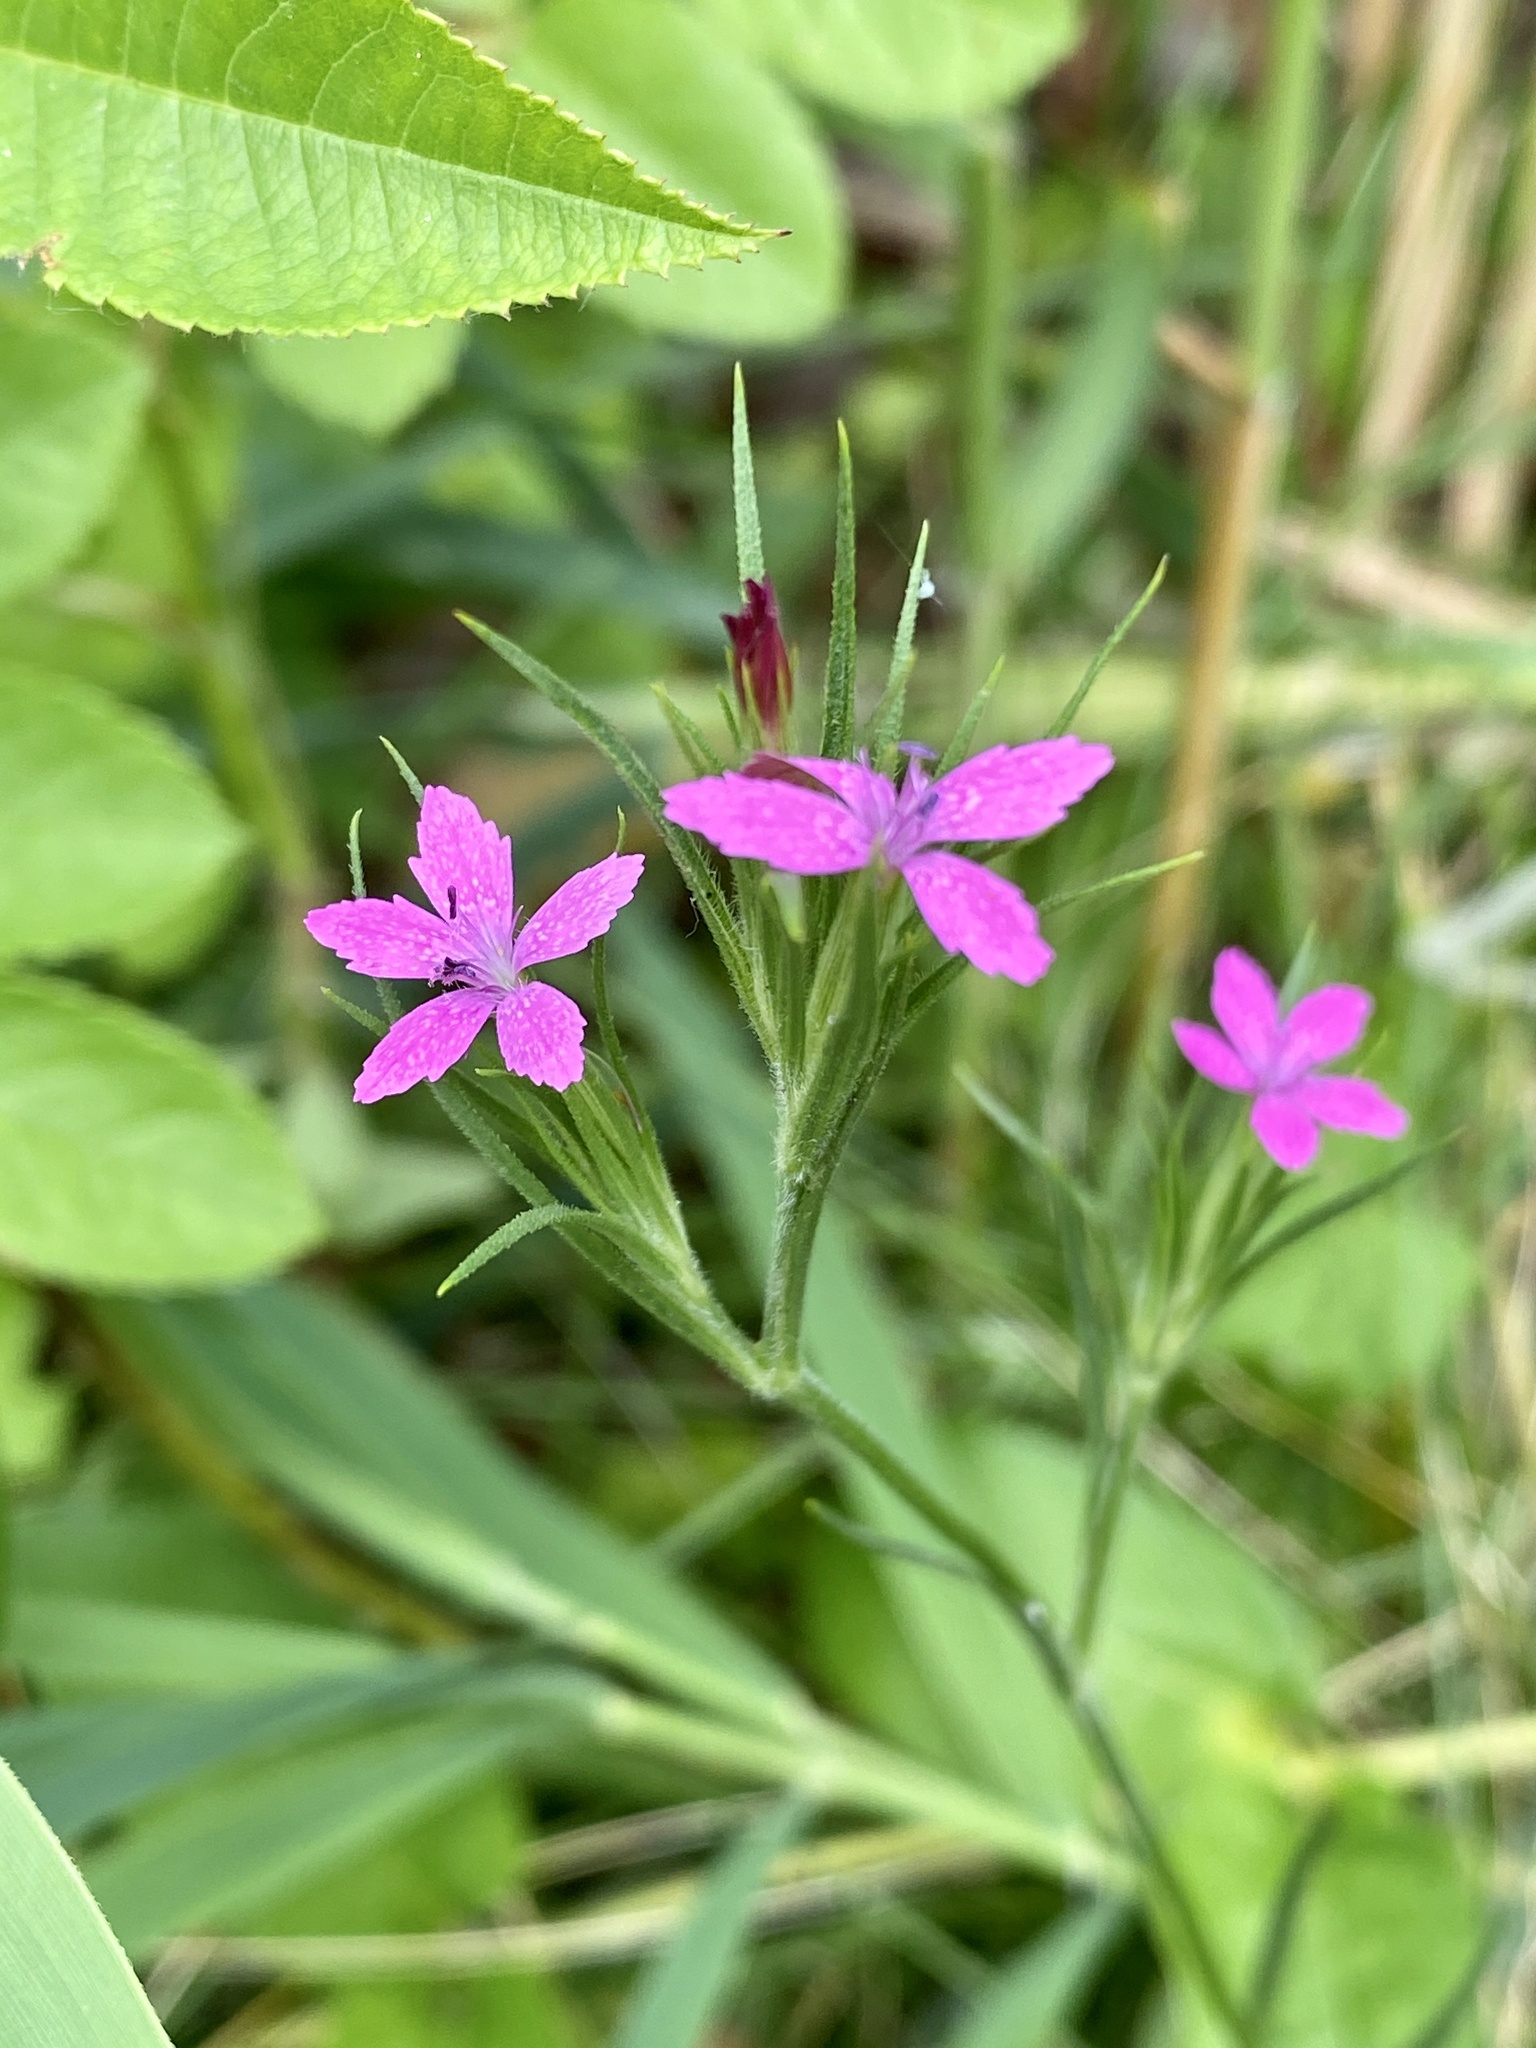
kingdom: Plantae
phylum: Tracheophyta
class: Magnoliopsida
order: Caryophyllales
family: Caryophyllaceae
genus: Dianthus
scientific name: Dianthus armeria
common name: Deptford pink
